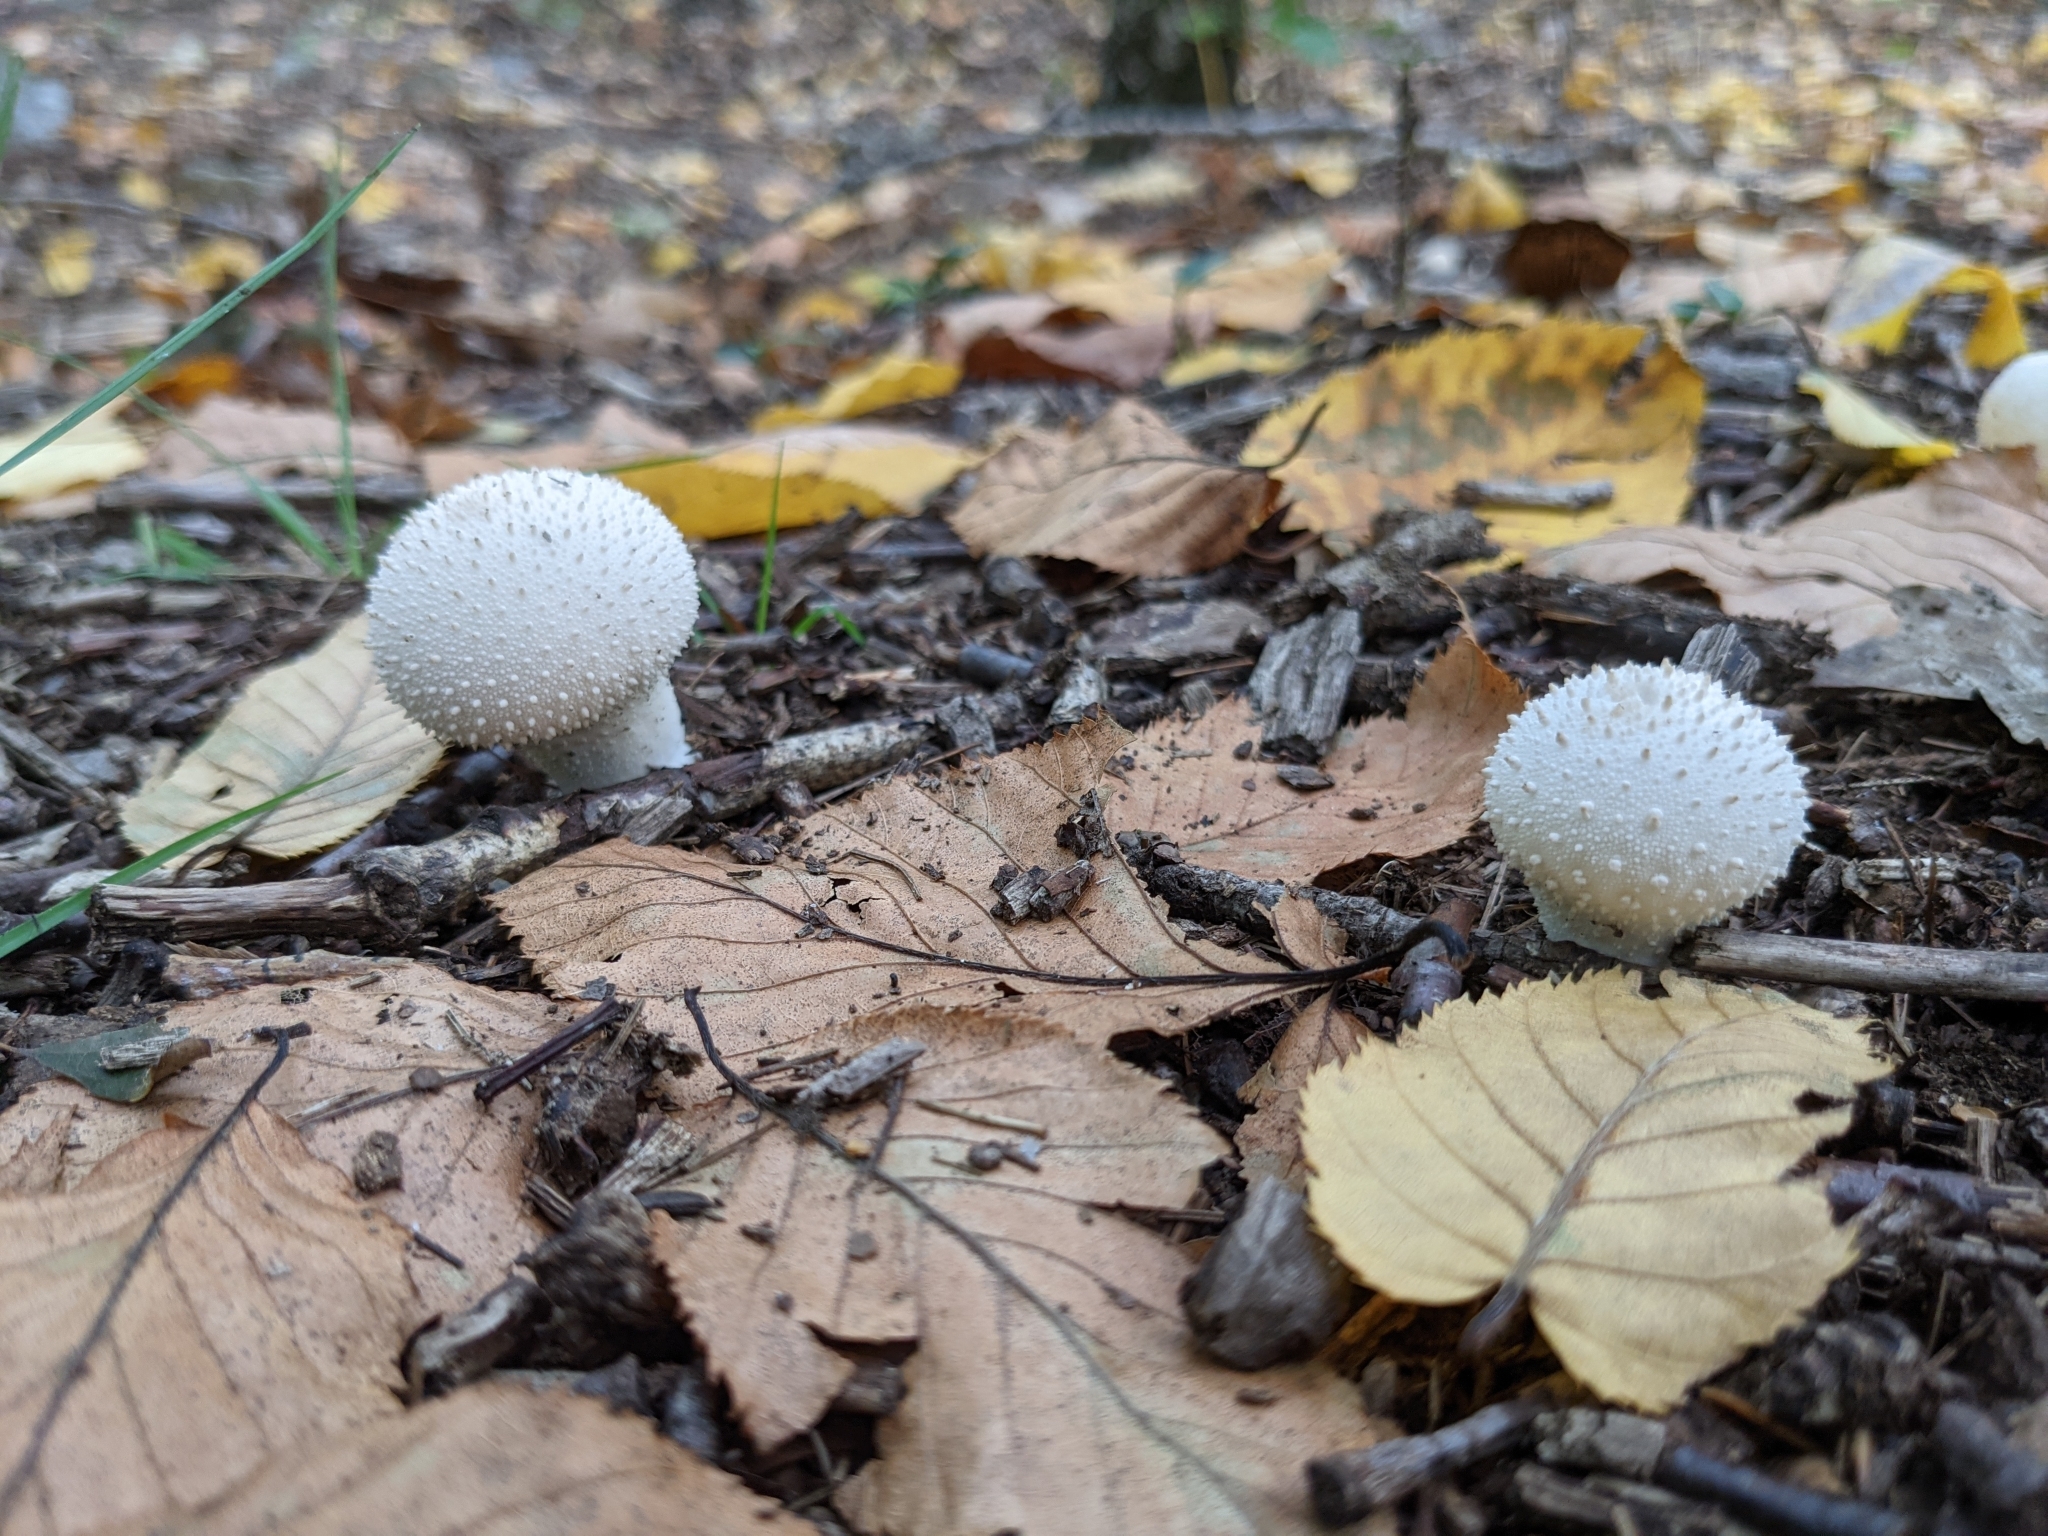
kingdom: Fungi
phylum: Basidiomycota
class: Agaricomycetes
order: Agaricales
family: Lycoperdaceae
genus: Lycoperdon
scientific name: Lycoperdon perlatum
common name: Common puffball
